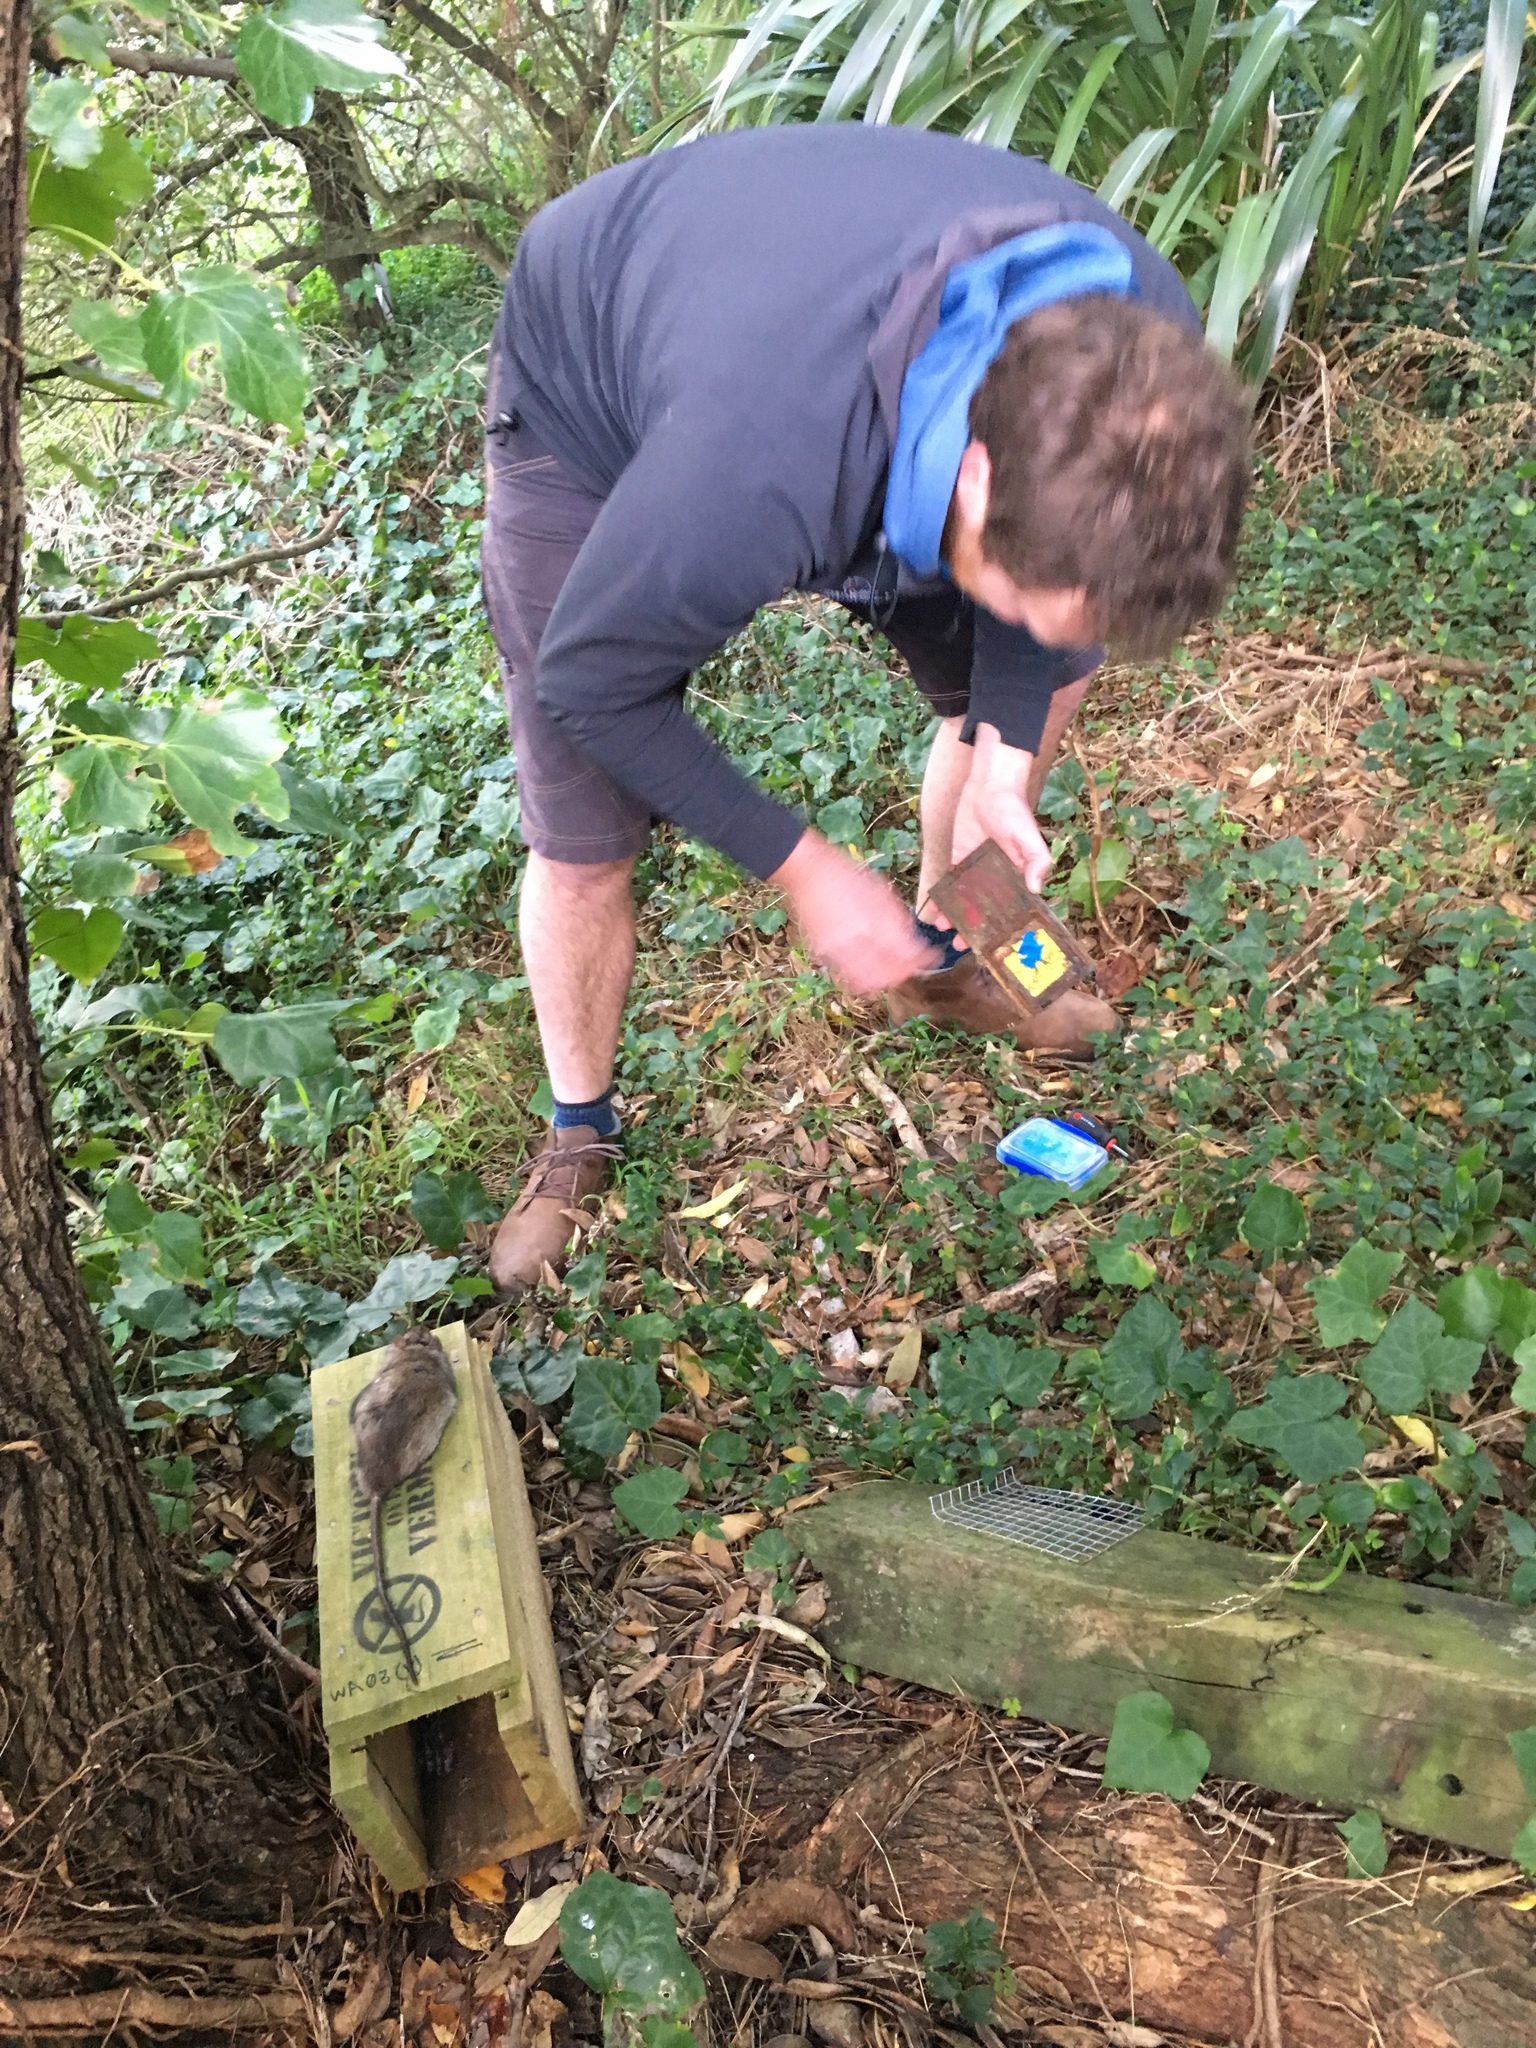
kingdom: Animalia
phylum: Chordata
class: Mammalia
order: Rodentia
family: Muridae
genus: Rattus
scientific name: Rattus rattus
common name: Black rat
